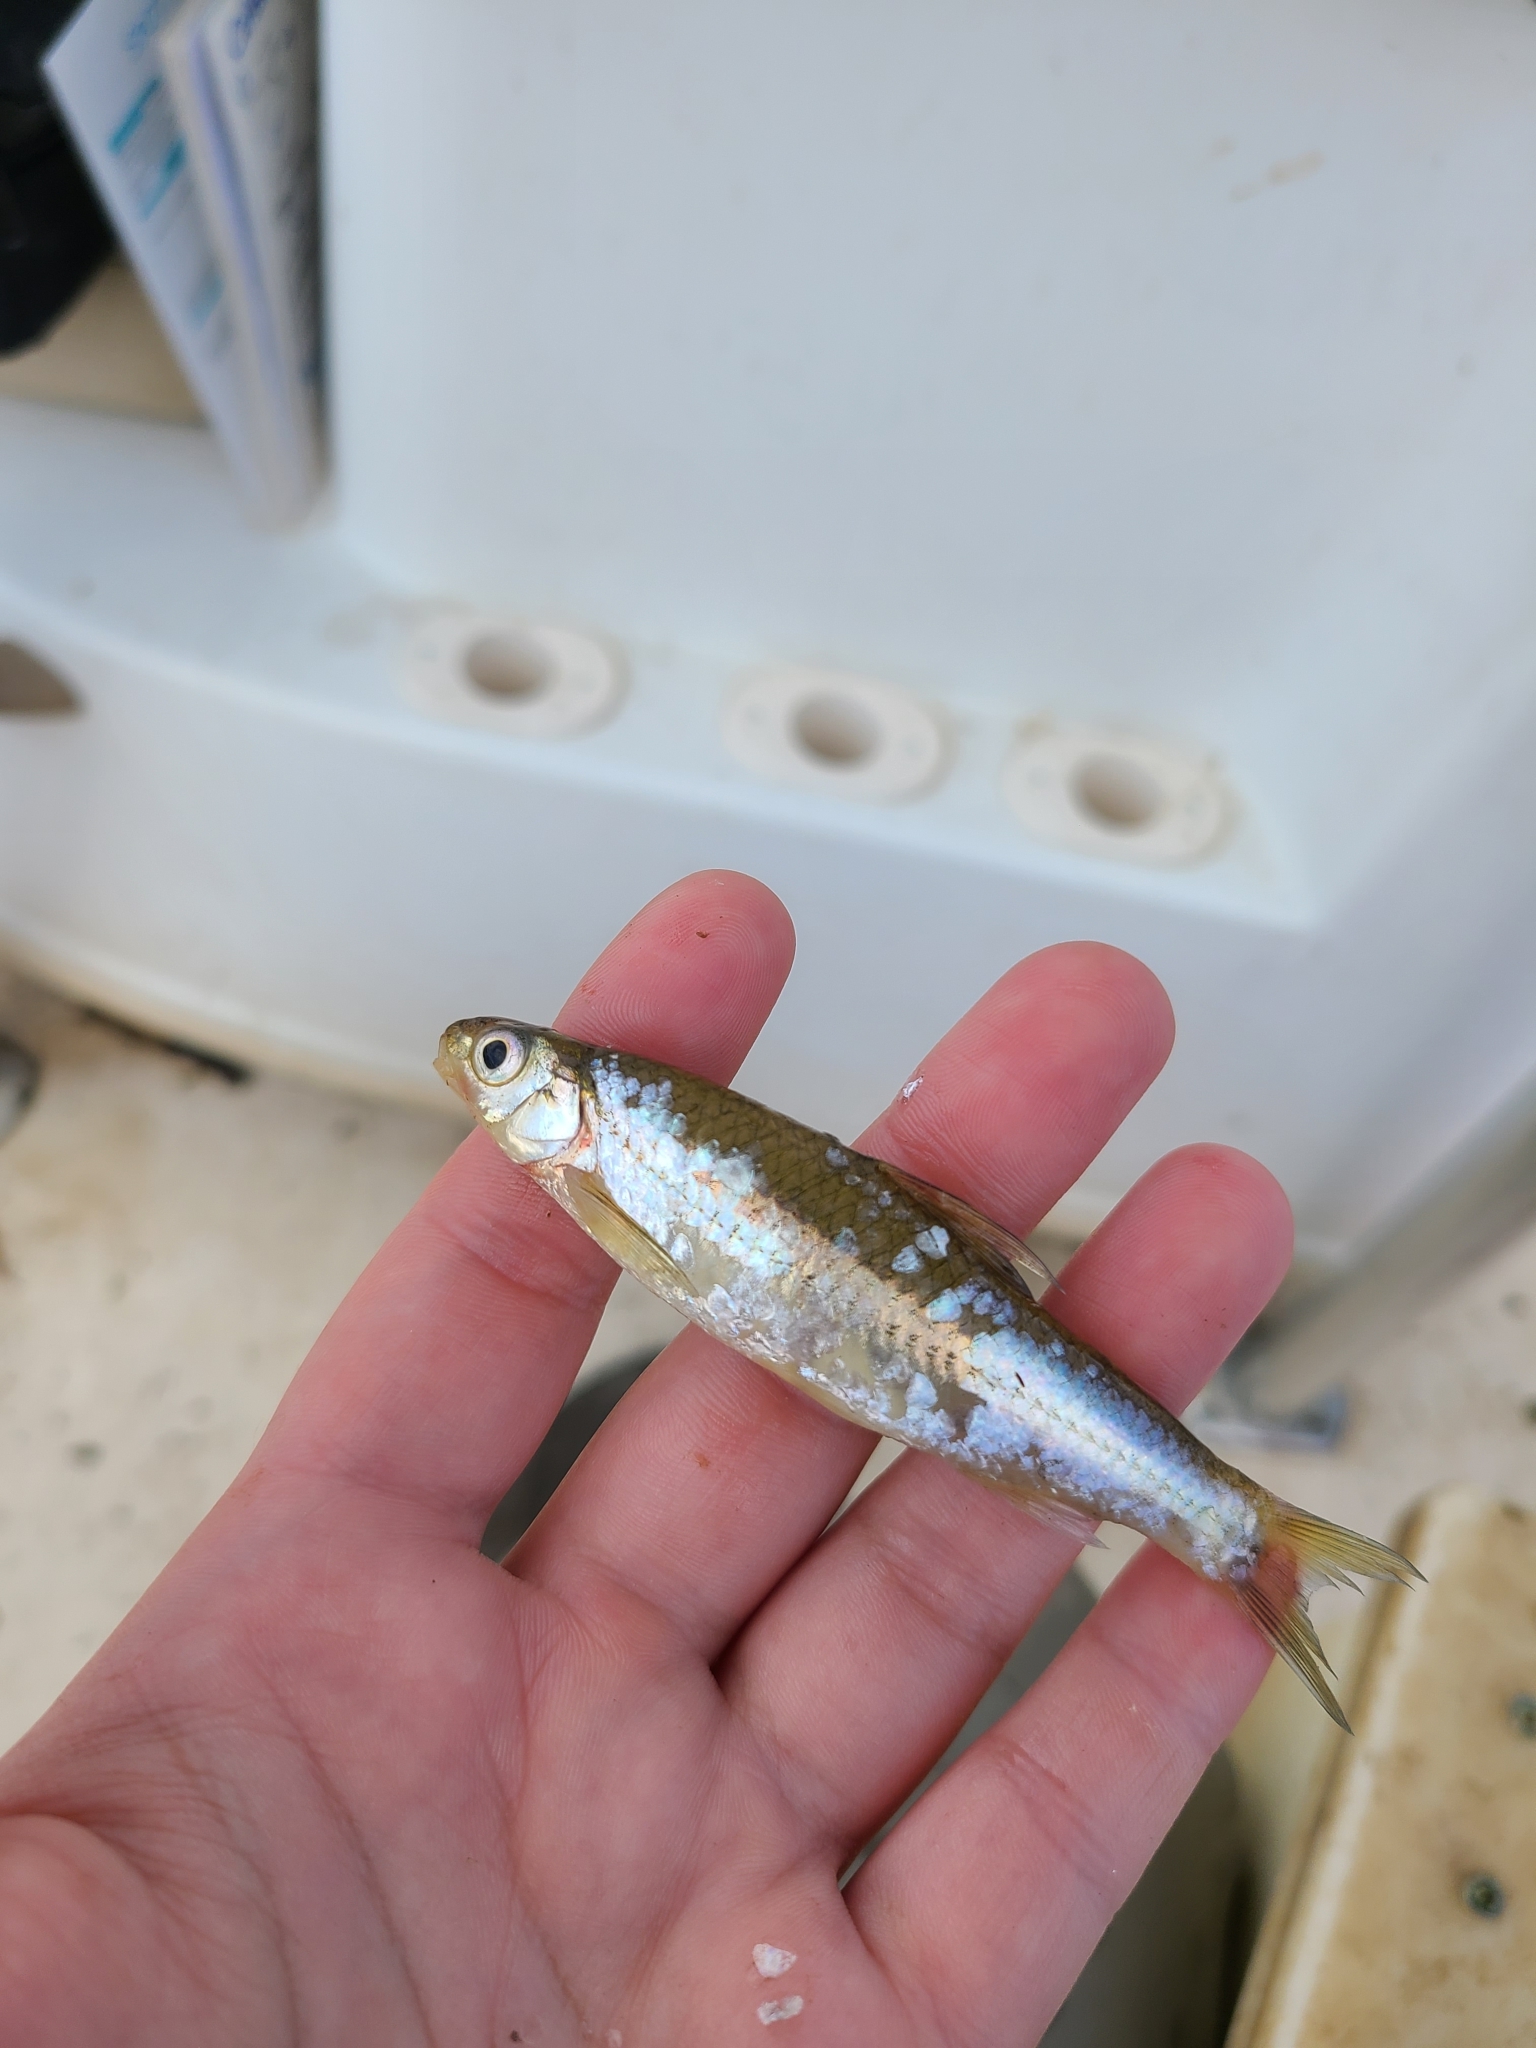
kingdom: Animalia
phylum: Chordata
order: Cypriniformes
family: Cyprinidae
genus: Notropis
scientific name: Notropis
